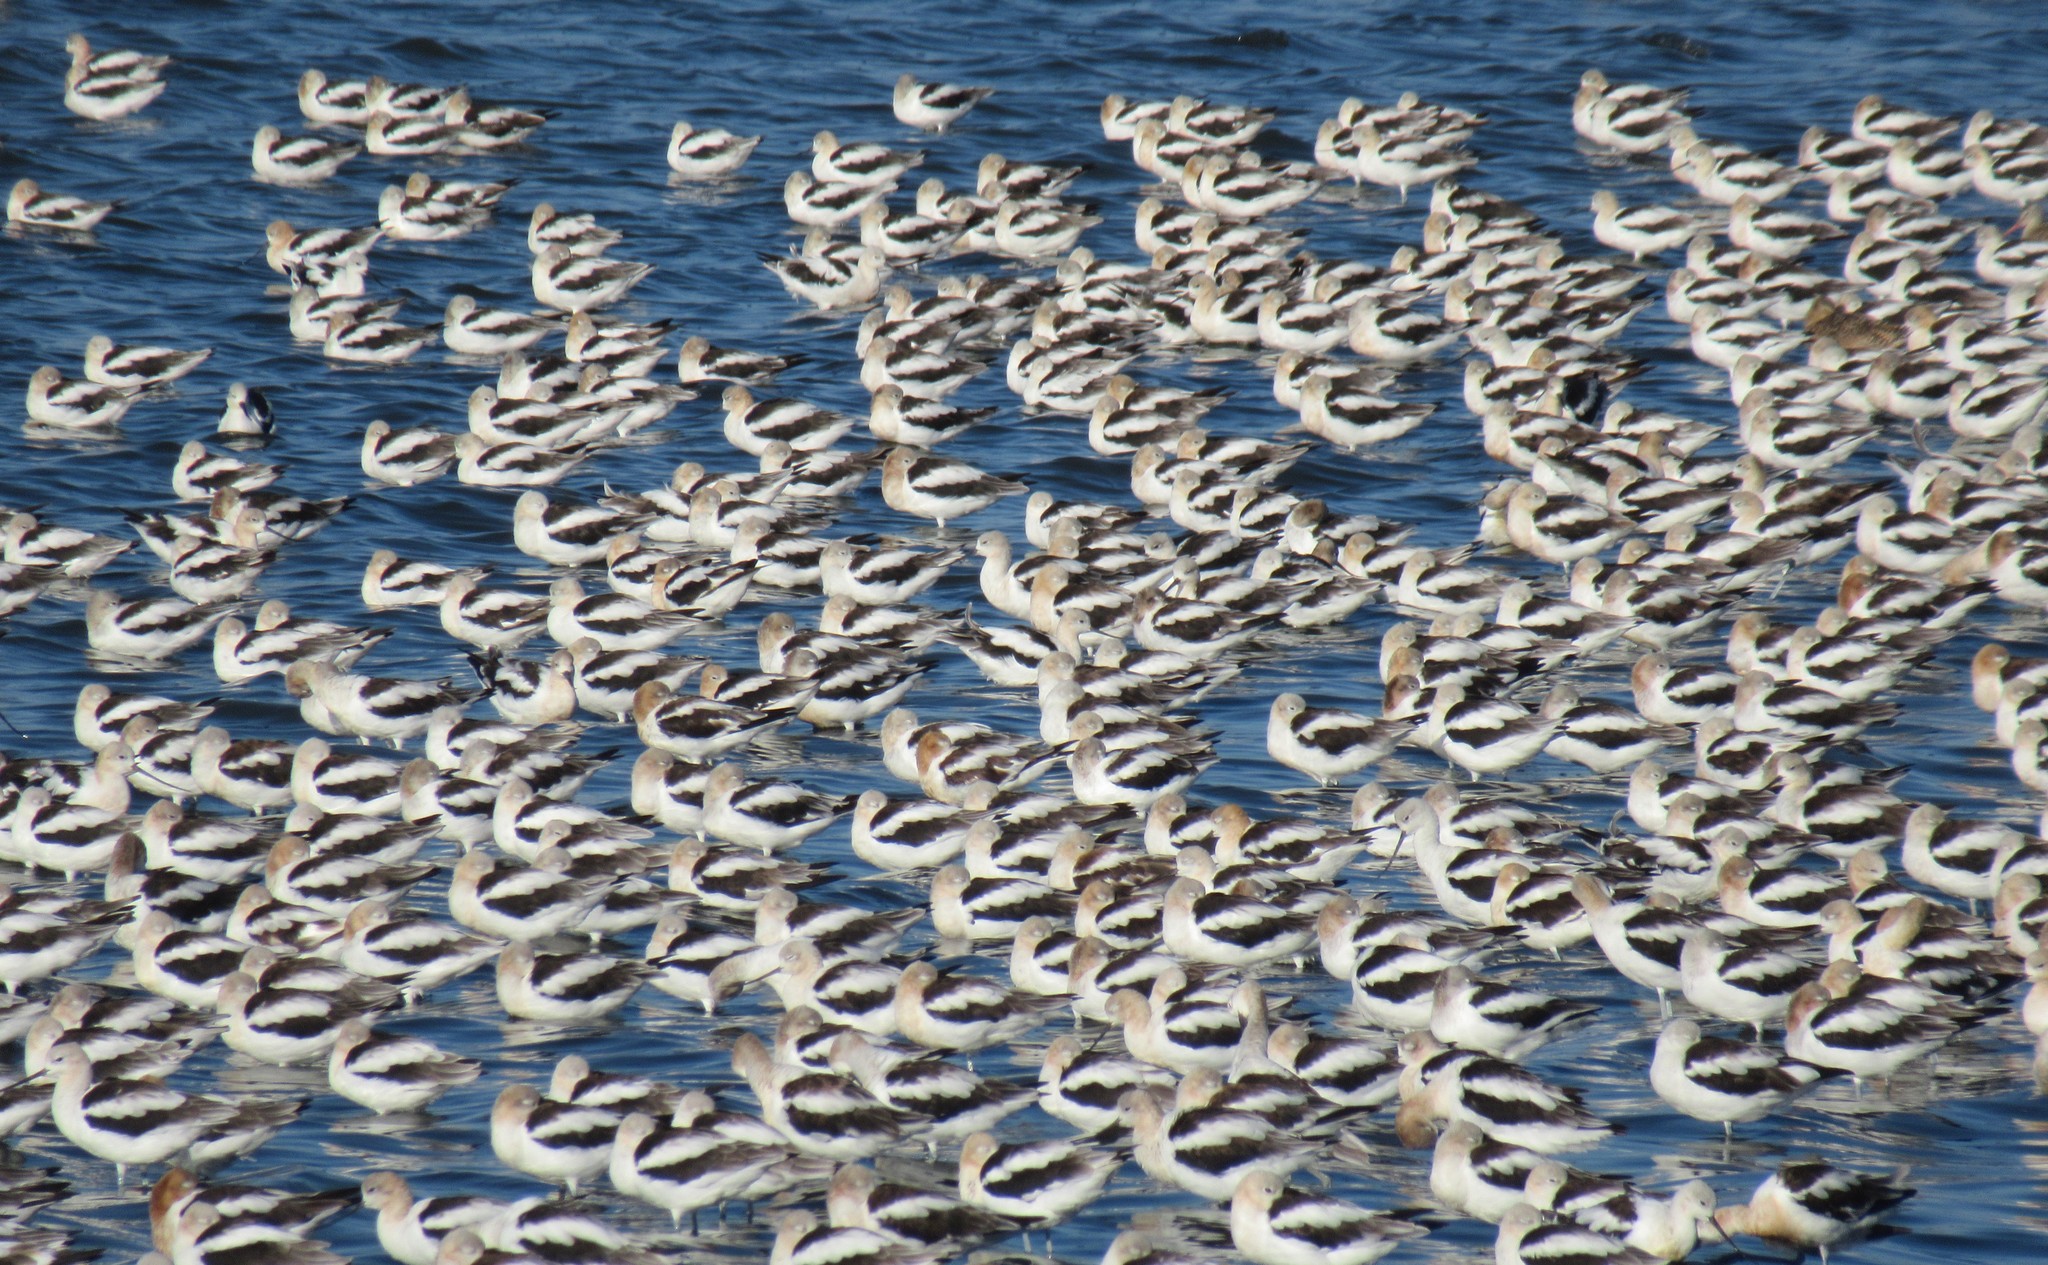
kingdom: Animalia
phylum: Chordata
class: Aves
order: Charadriiformes
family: Recurvirostridae
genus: Recurvirostra
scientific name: Recurvirostra americana
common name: American avocet
